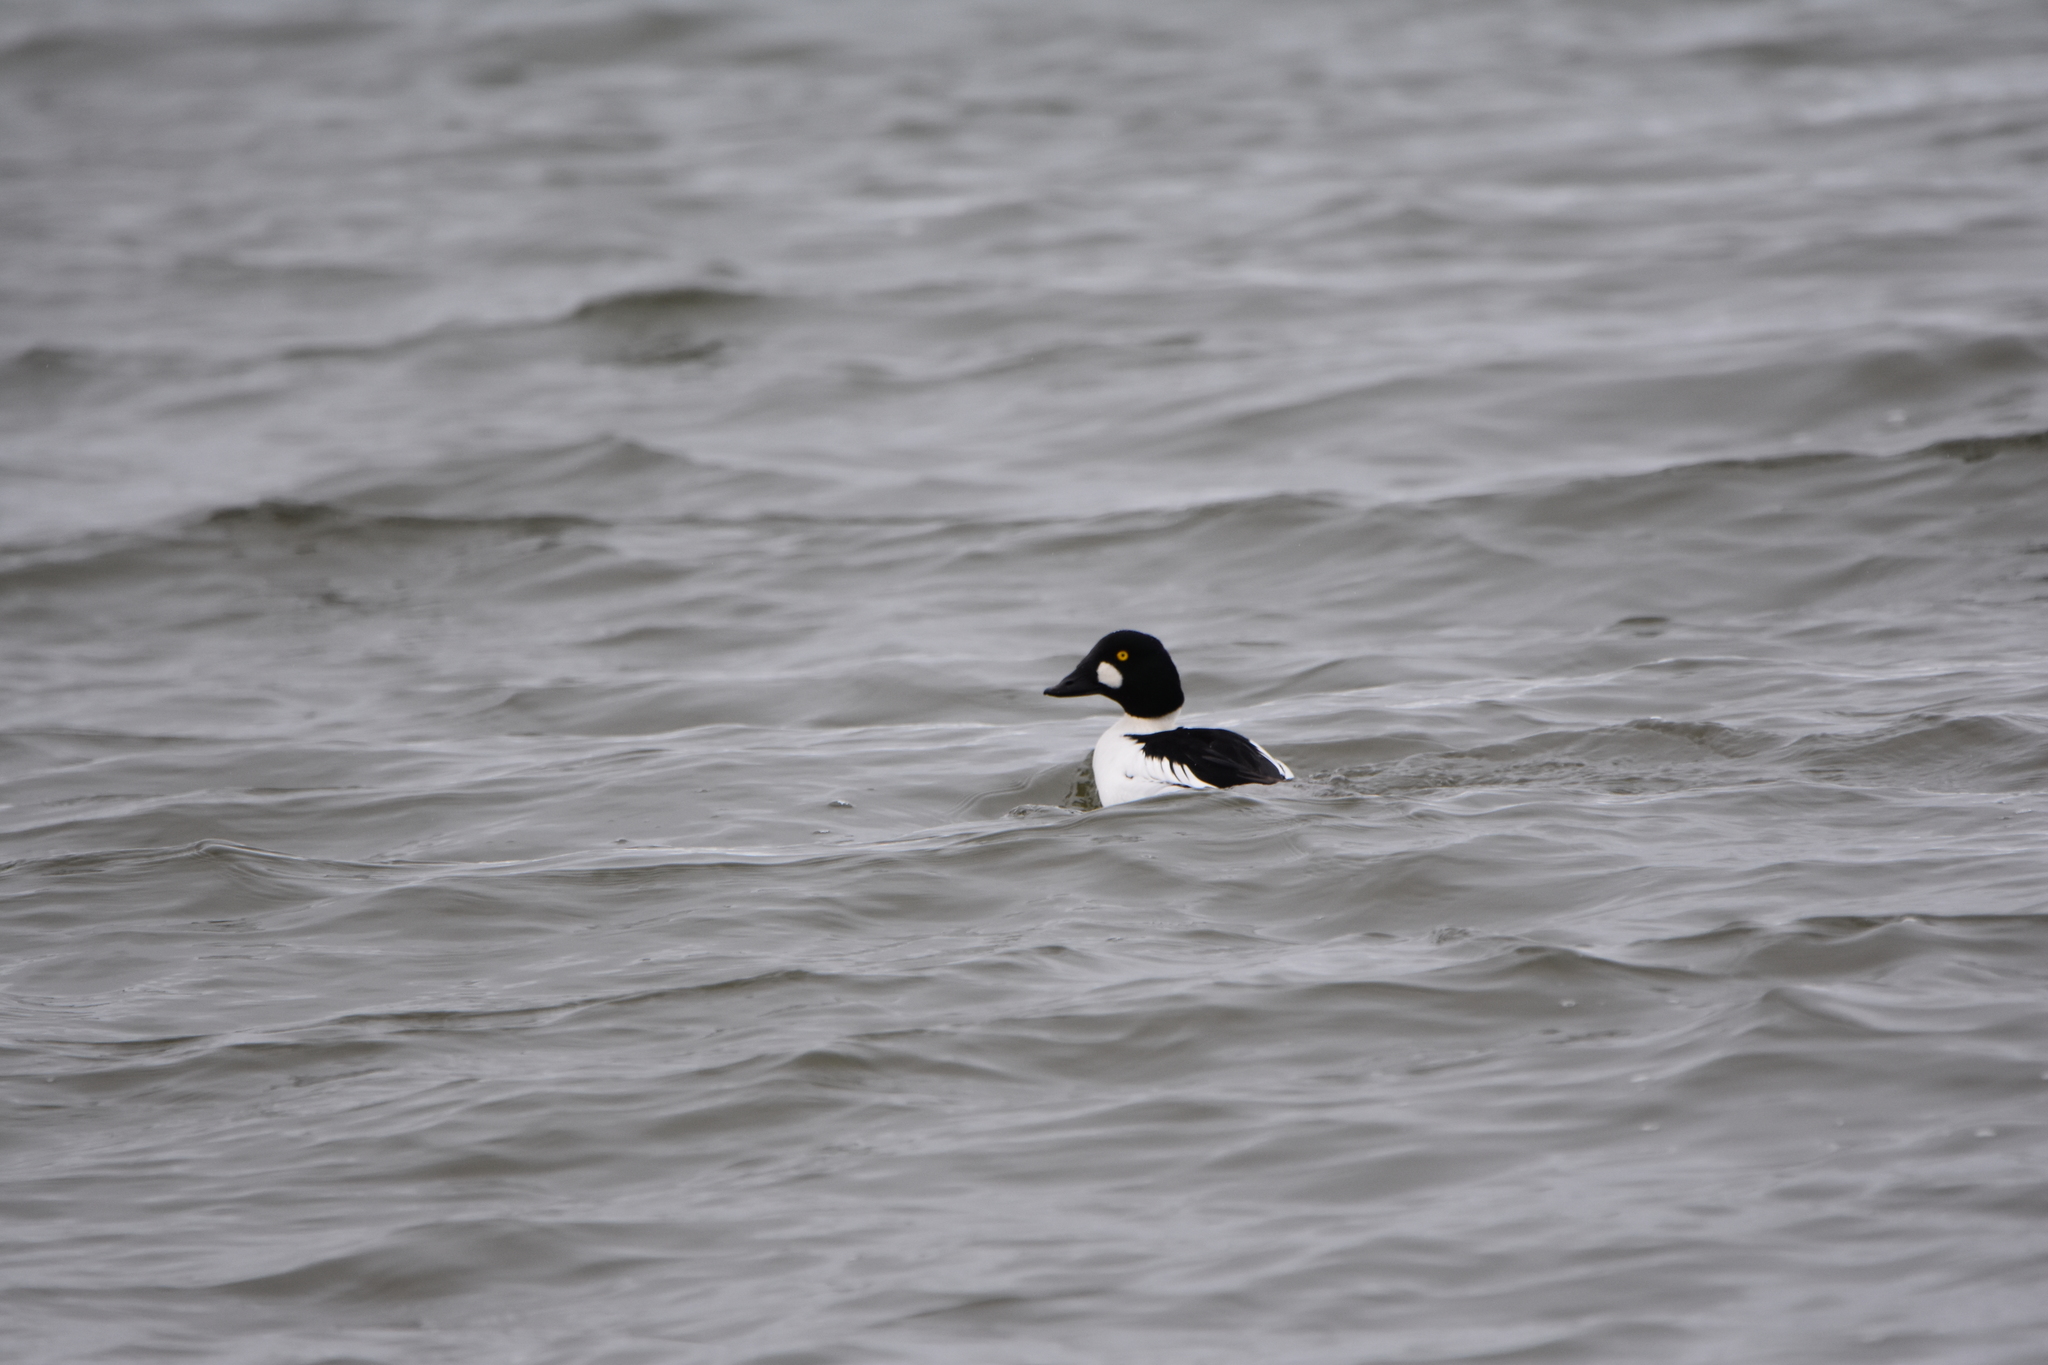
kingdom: Animalia
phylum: Chordata
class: Aves
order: Anseriformes
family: Anatidae
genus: Bucephala
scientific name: Bucephala clangula
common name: Common goldeneye
